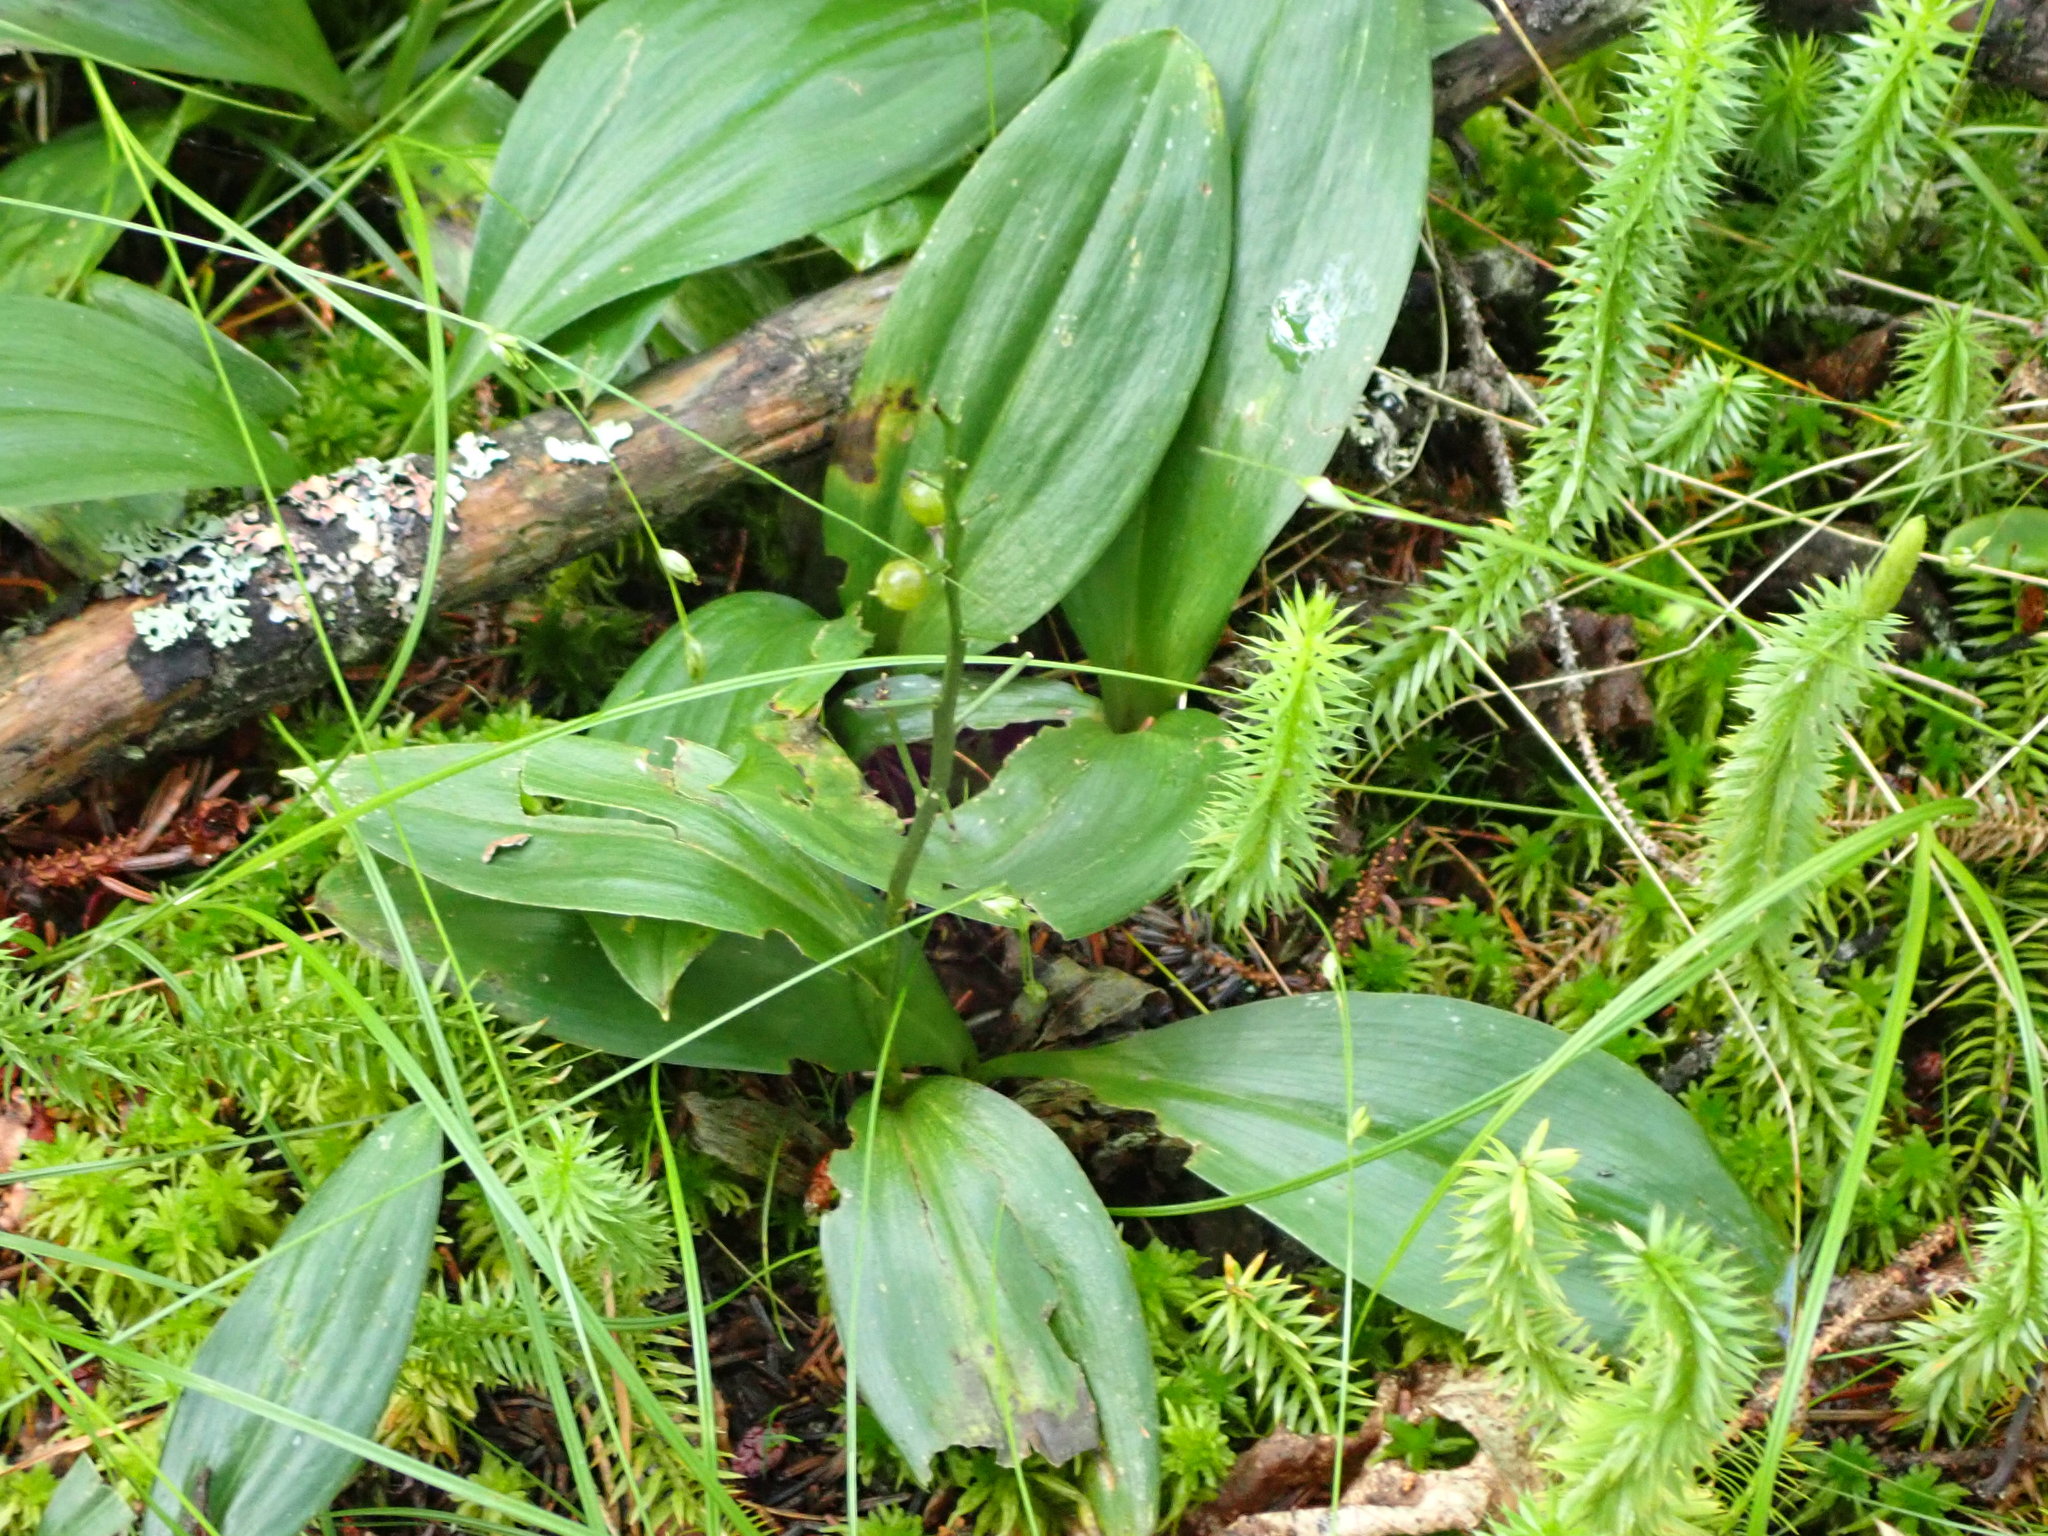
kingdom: Plantae
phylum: Tracheophyta
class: Liliopsida
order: Asparagales
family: Asparagaceae
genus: Maianthemum
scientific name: Maianthemum trifolium
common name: Swamp false solomon's seal
